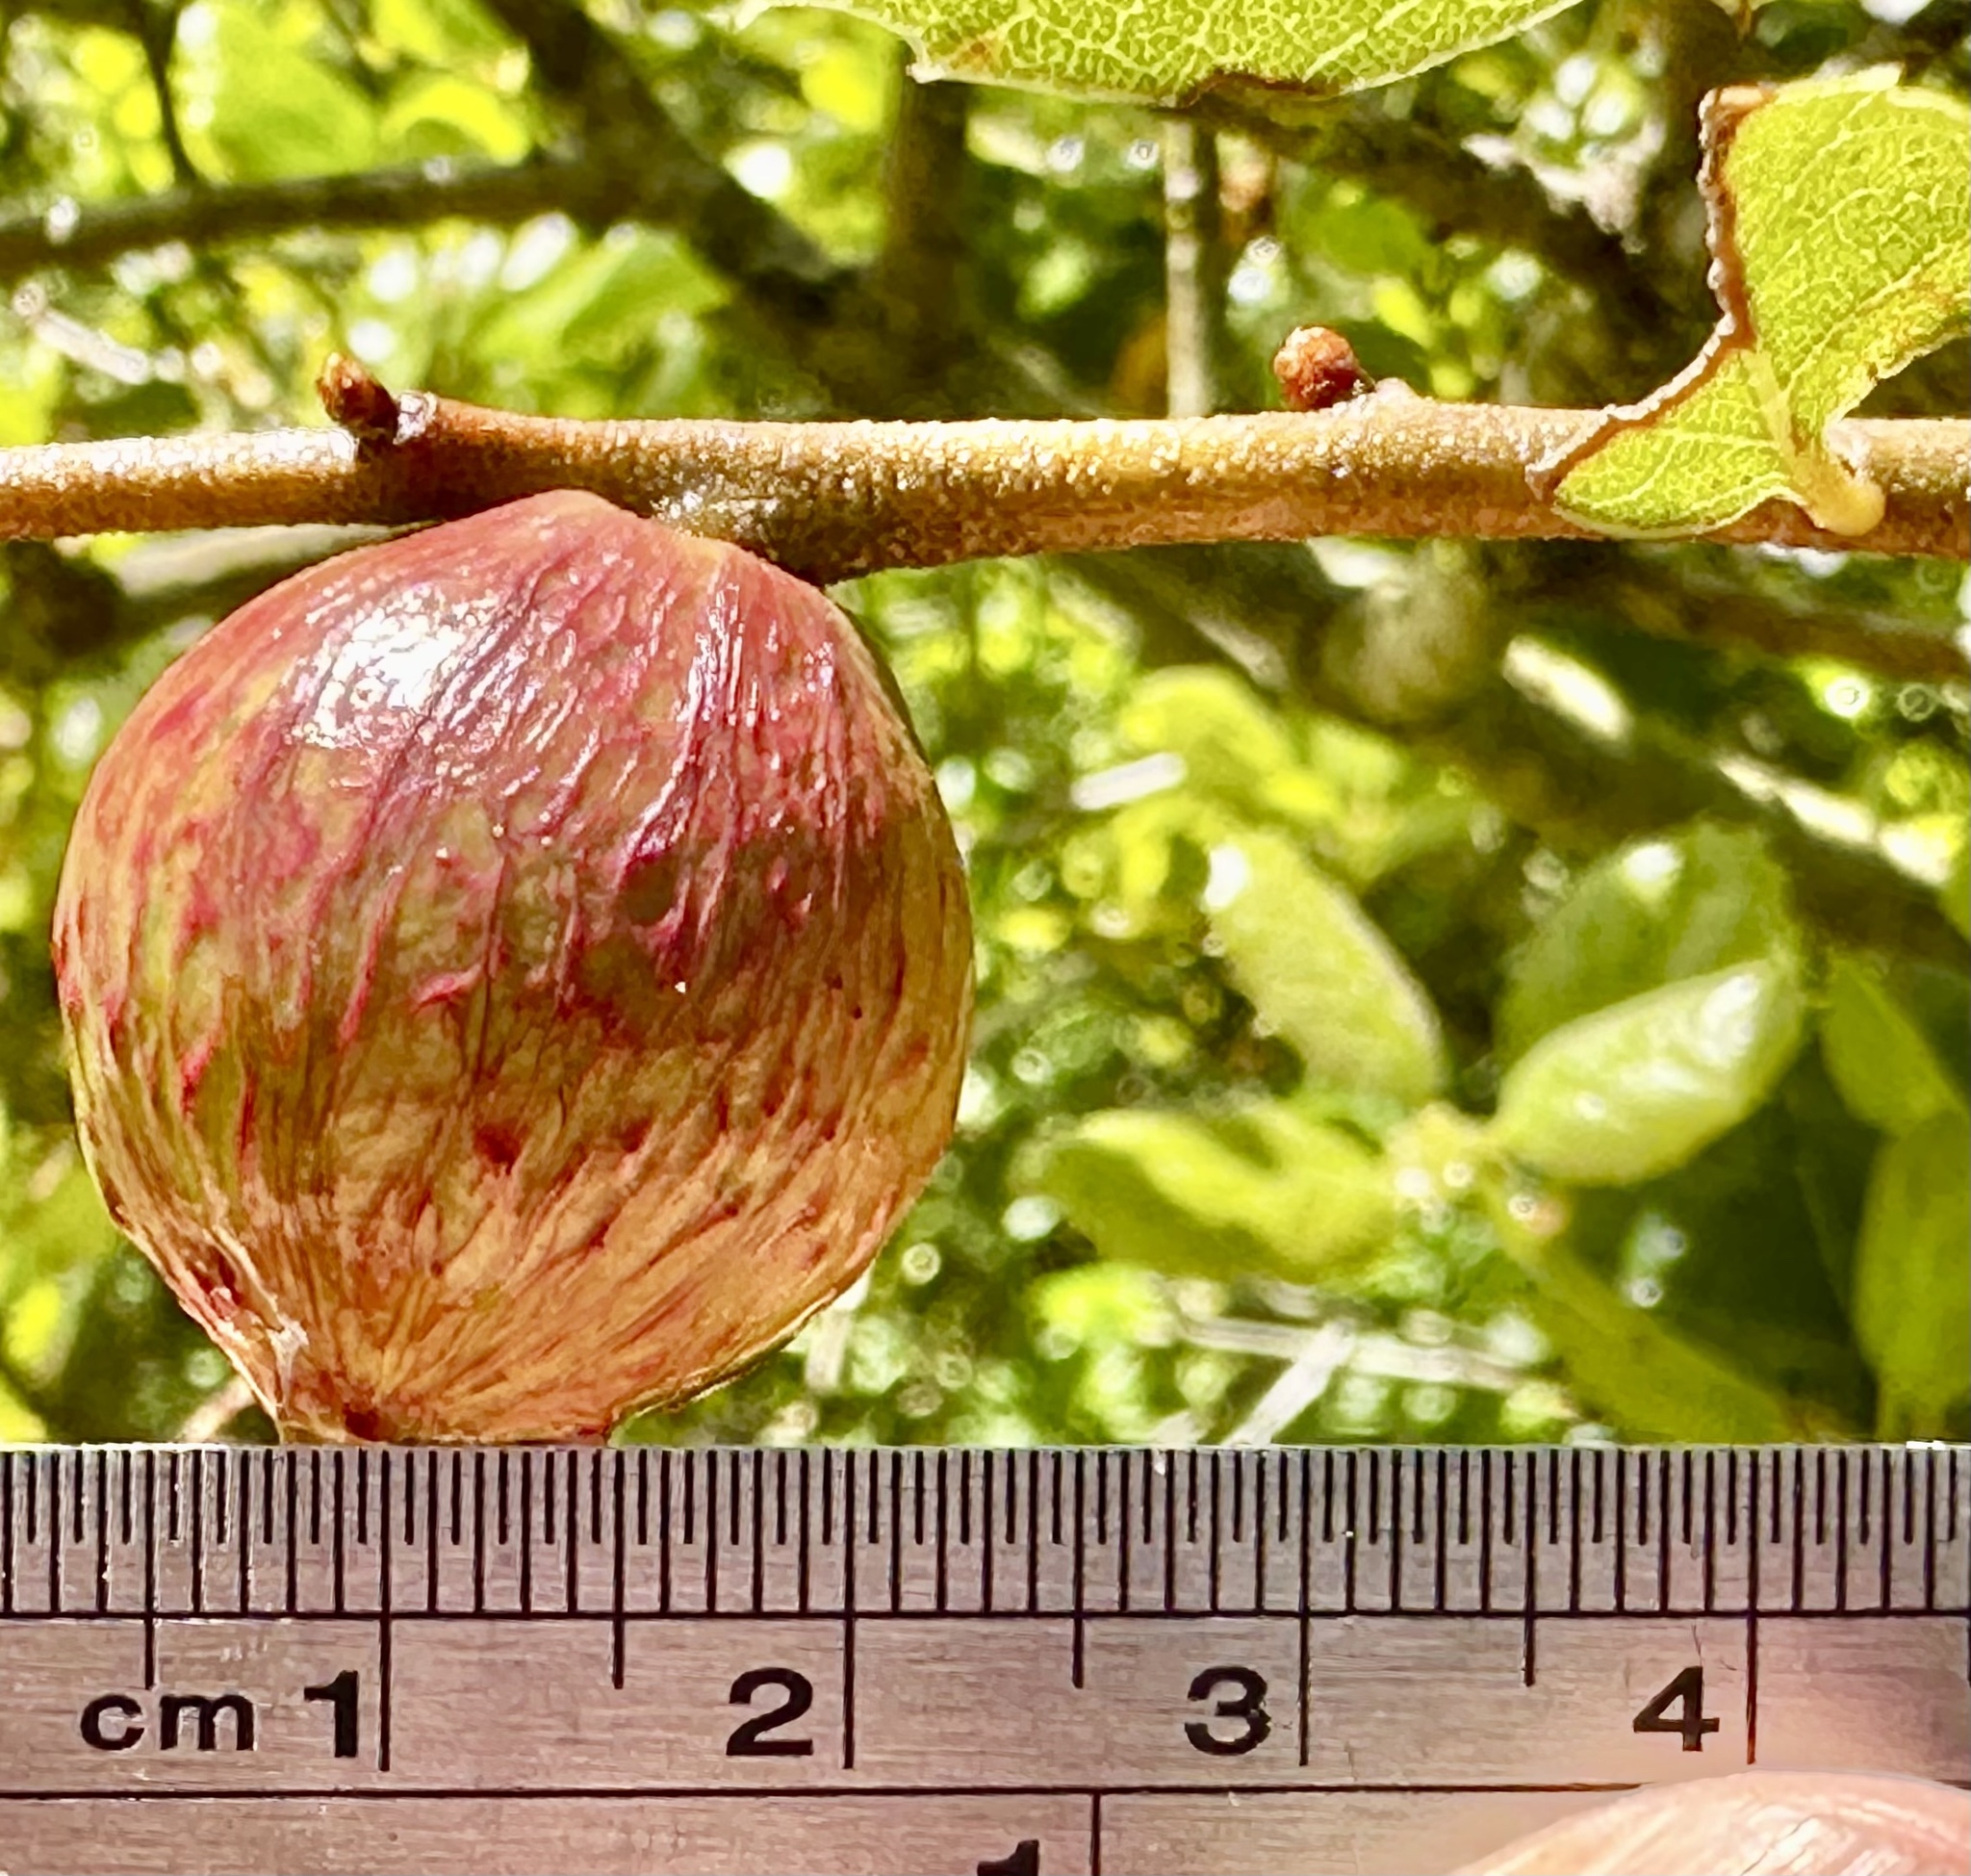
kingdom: Animalia
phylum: Arthropoda
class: Insecta
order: Hymenoptera
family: Cynipidae
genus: Amphibolips
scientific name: Amphibolips quercuspomiformis
